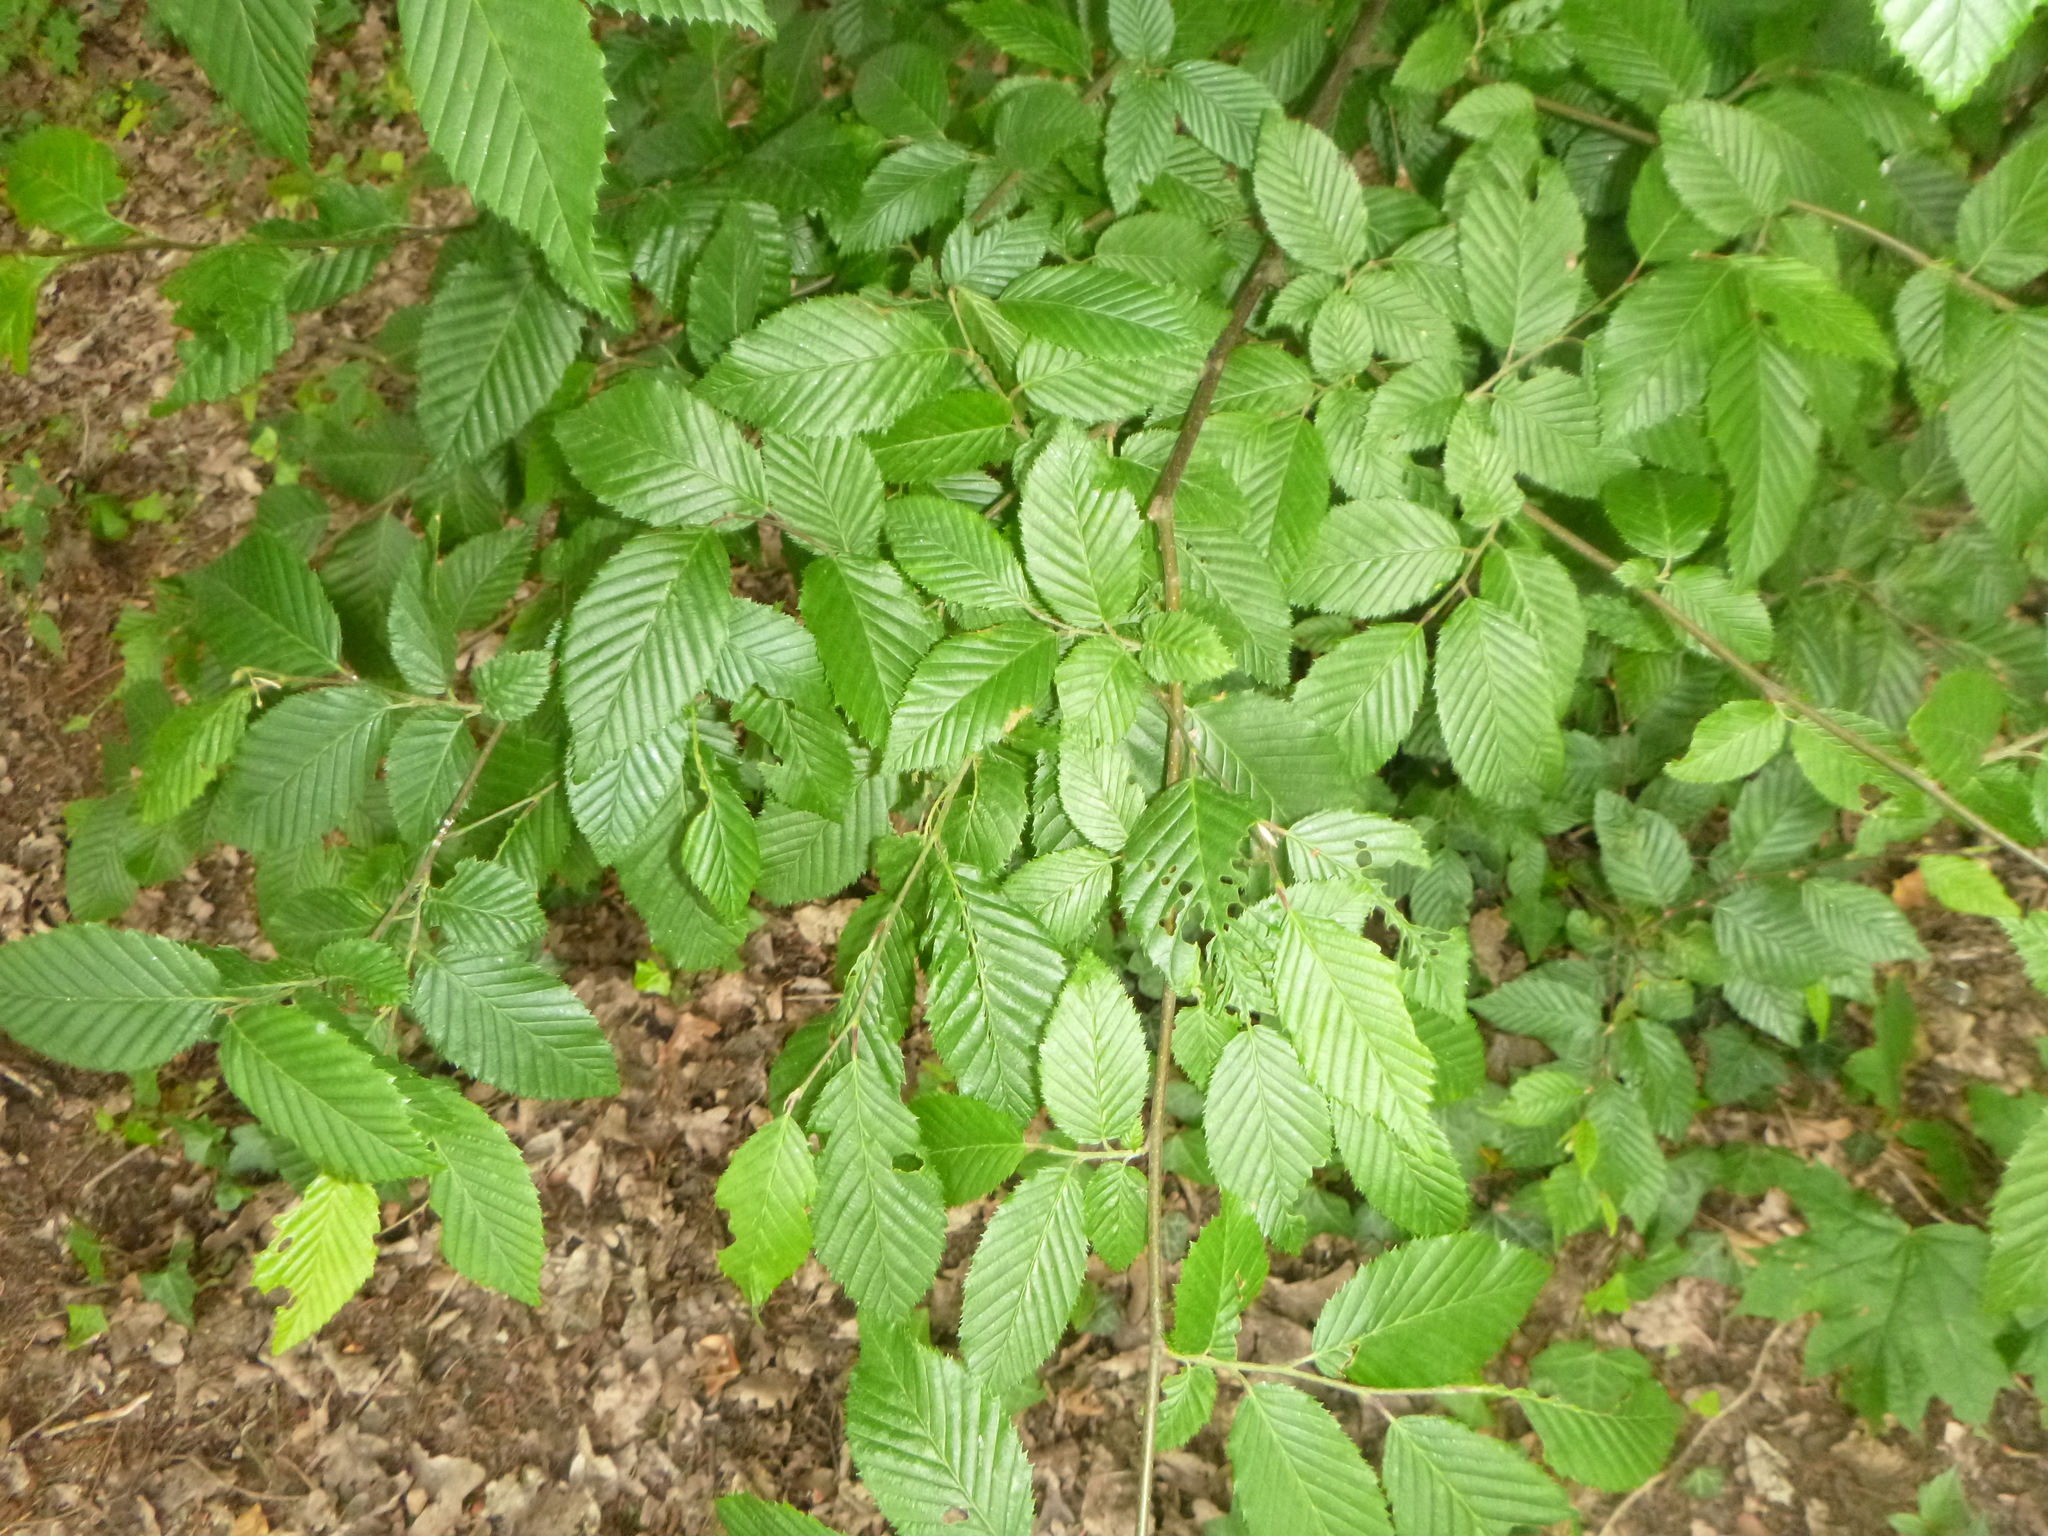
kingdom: Plantae
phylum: Tracheophyta
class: Magnoliopsida
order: Fagales
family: Betulaceae
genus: Carpinus
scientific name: Carpinus betulus
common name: Hornbeam
